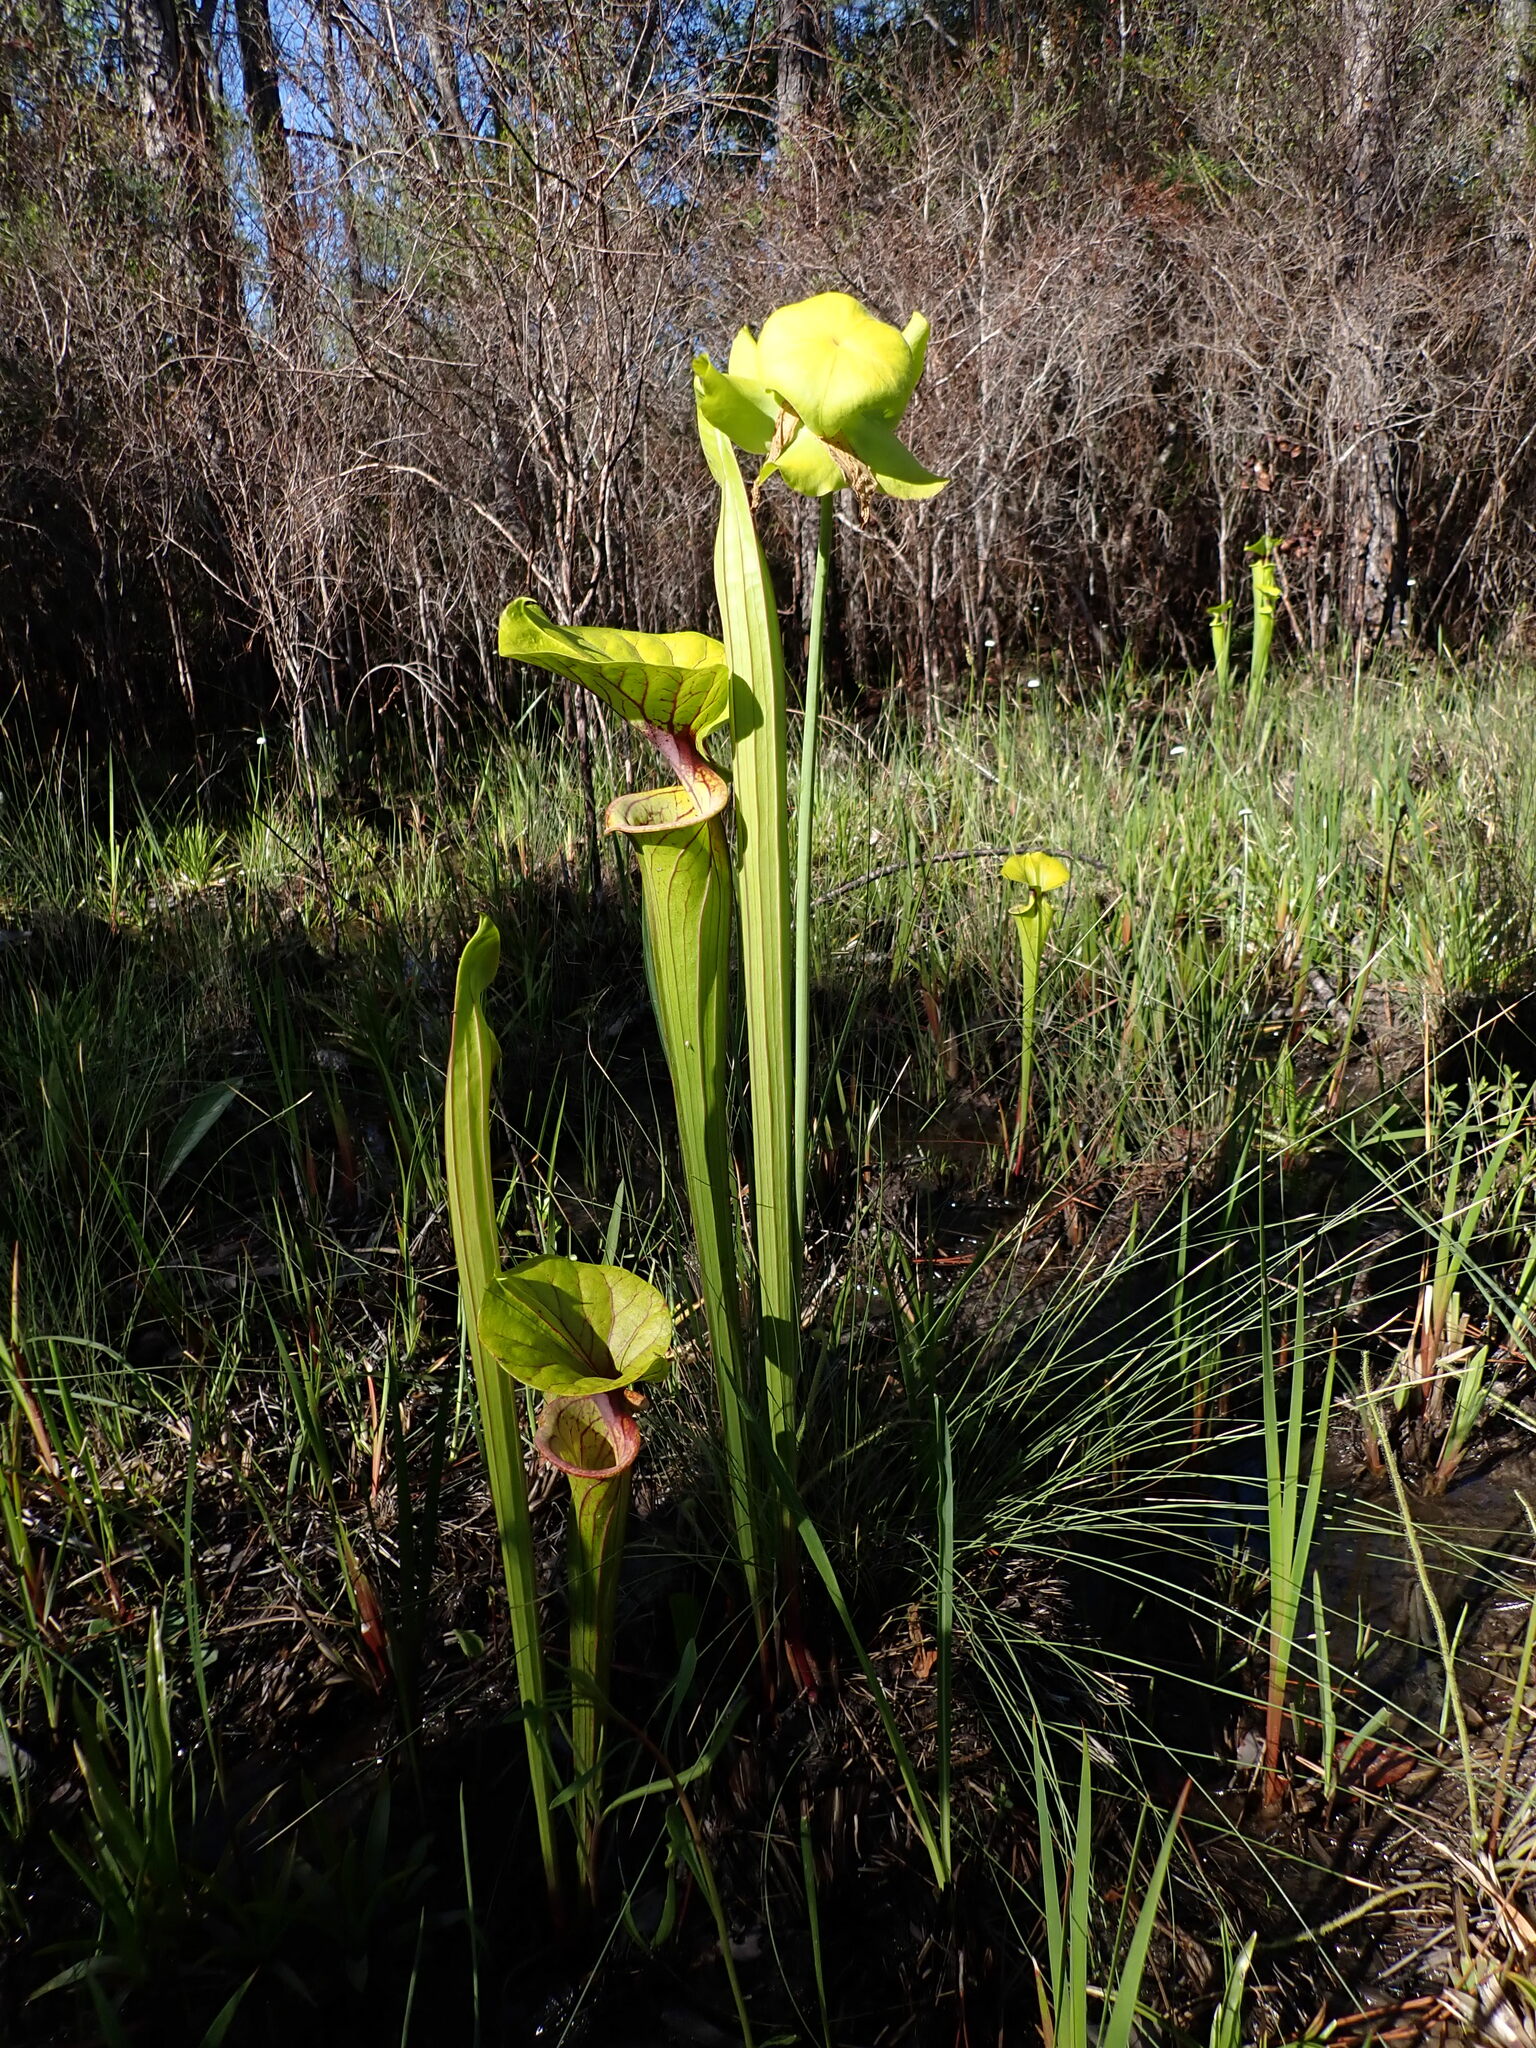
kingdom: Plantae
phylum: Tracheophyta
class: Magnoliopsida
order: Ericales
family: Sarraceniaceae
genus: Sarracenia
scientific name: Sarracenia flava
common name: Trumpets
